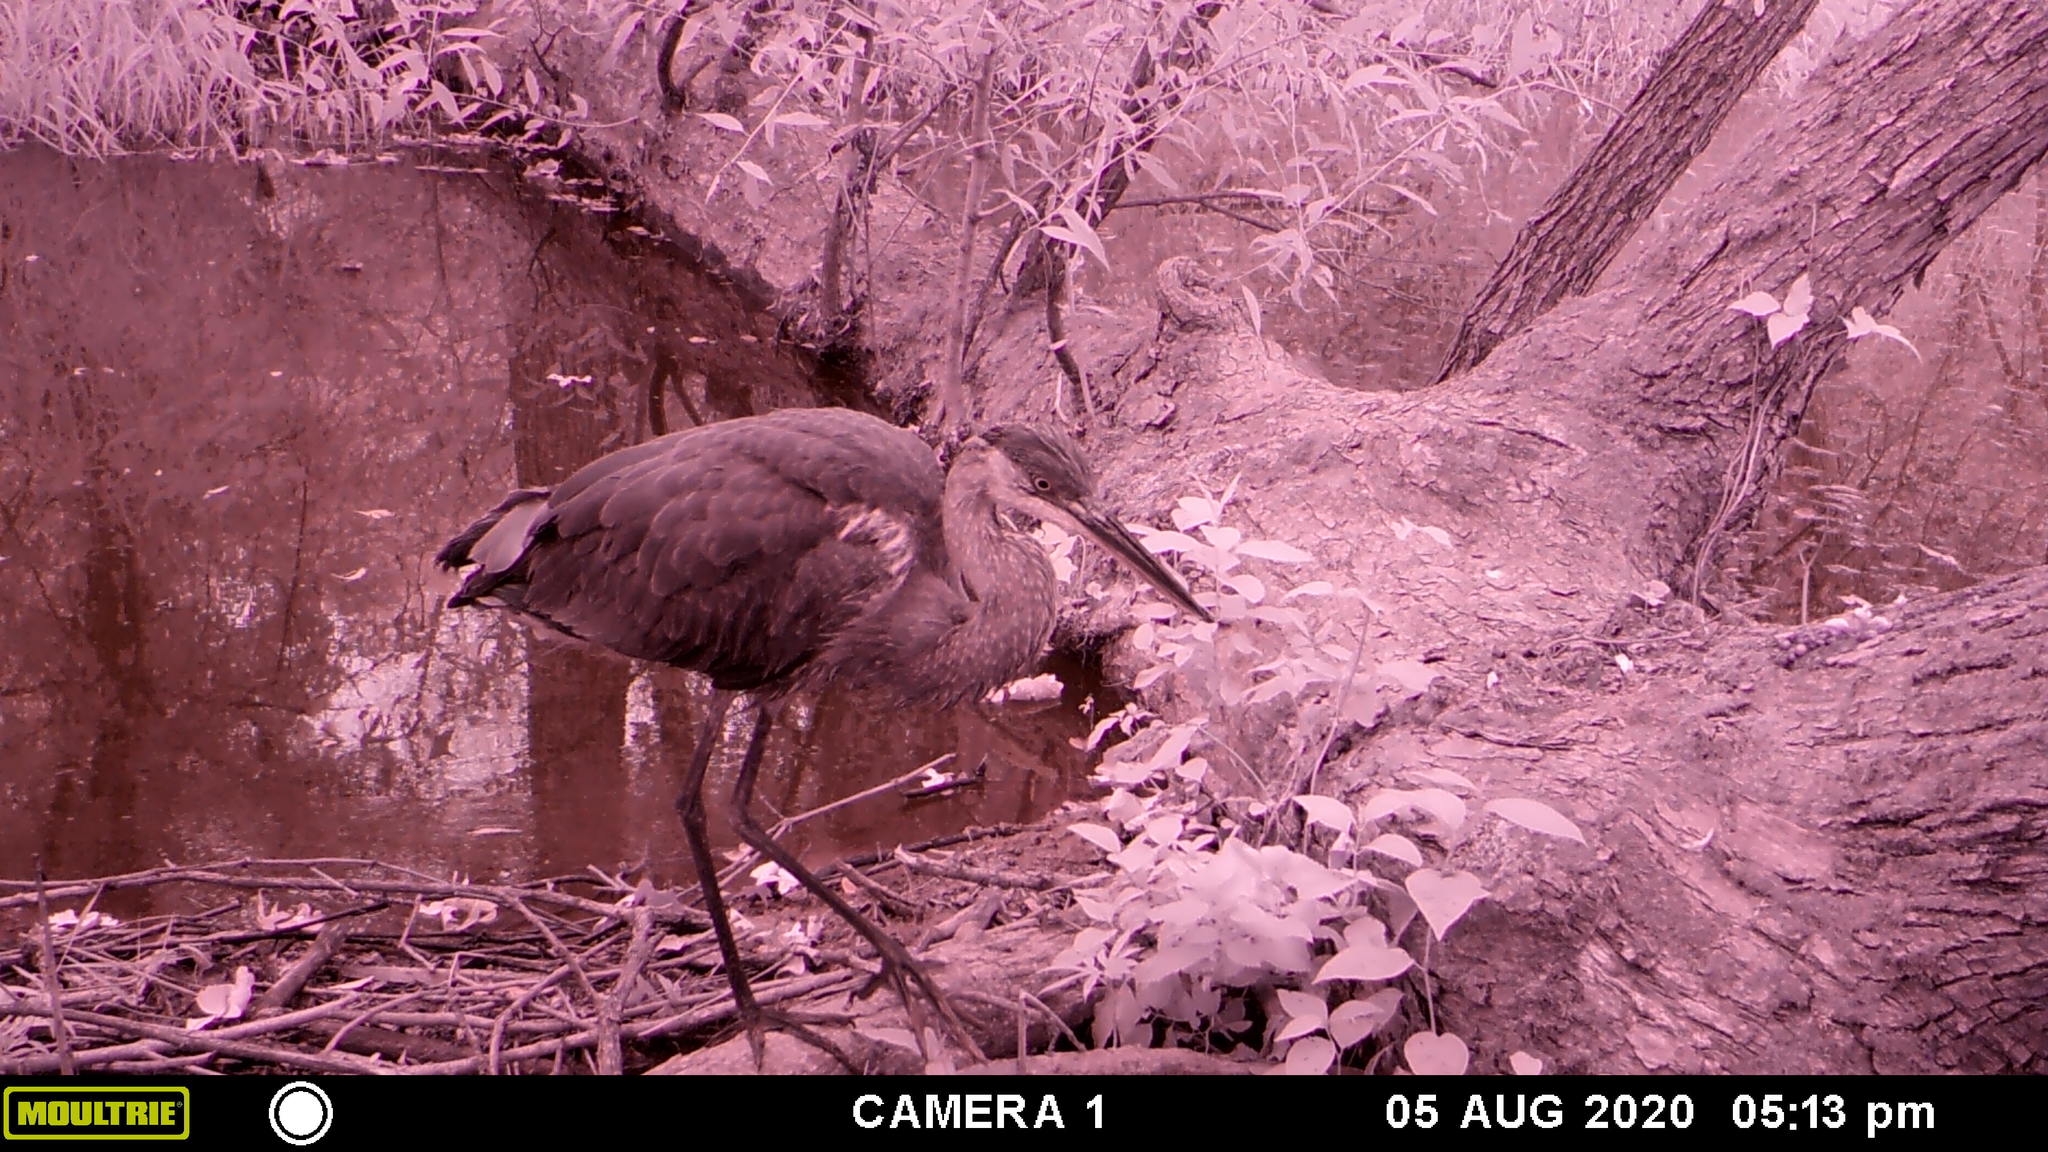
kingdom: Animalia
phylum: Chordata
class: Aves
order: Pelecaniformes
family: Ardeidae
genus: Ardea
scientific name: Ardea herodias
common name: Great blue heron
